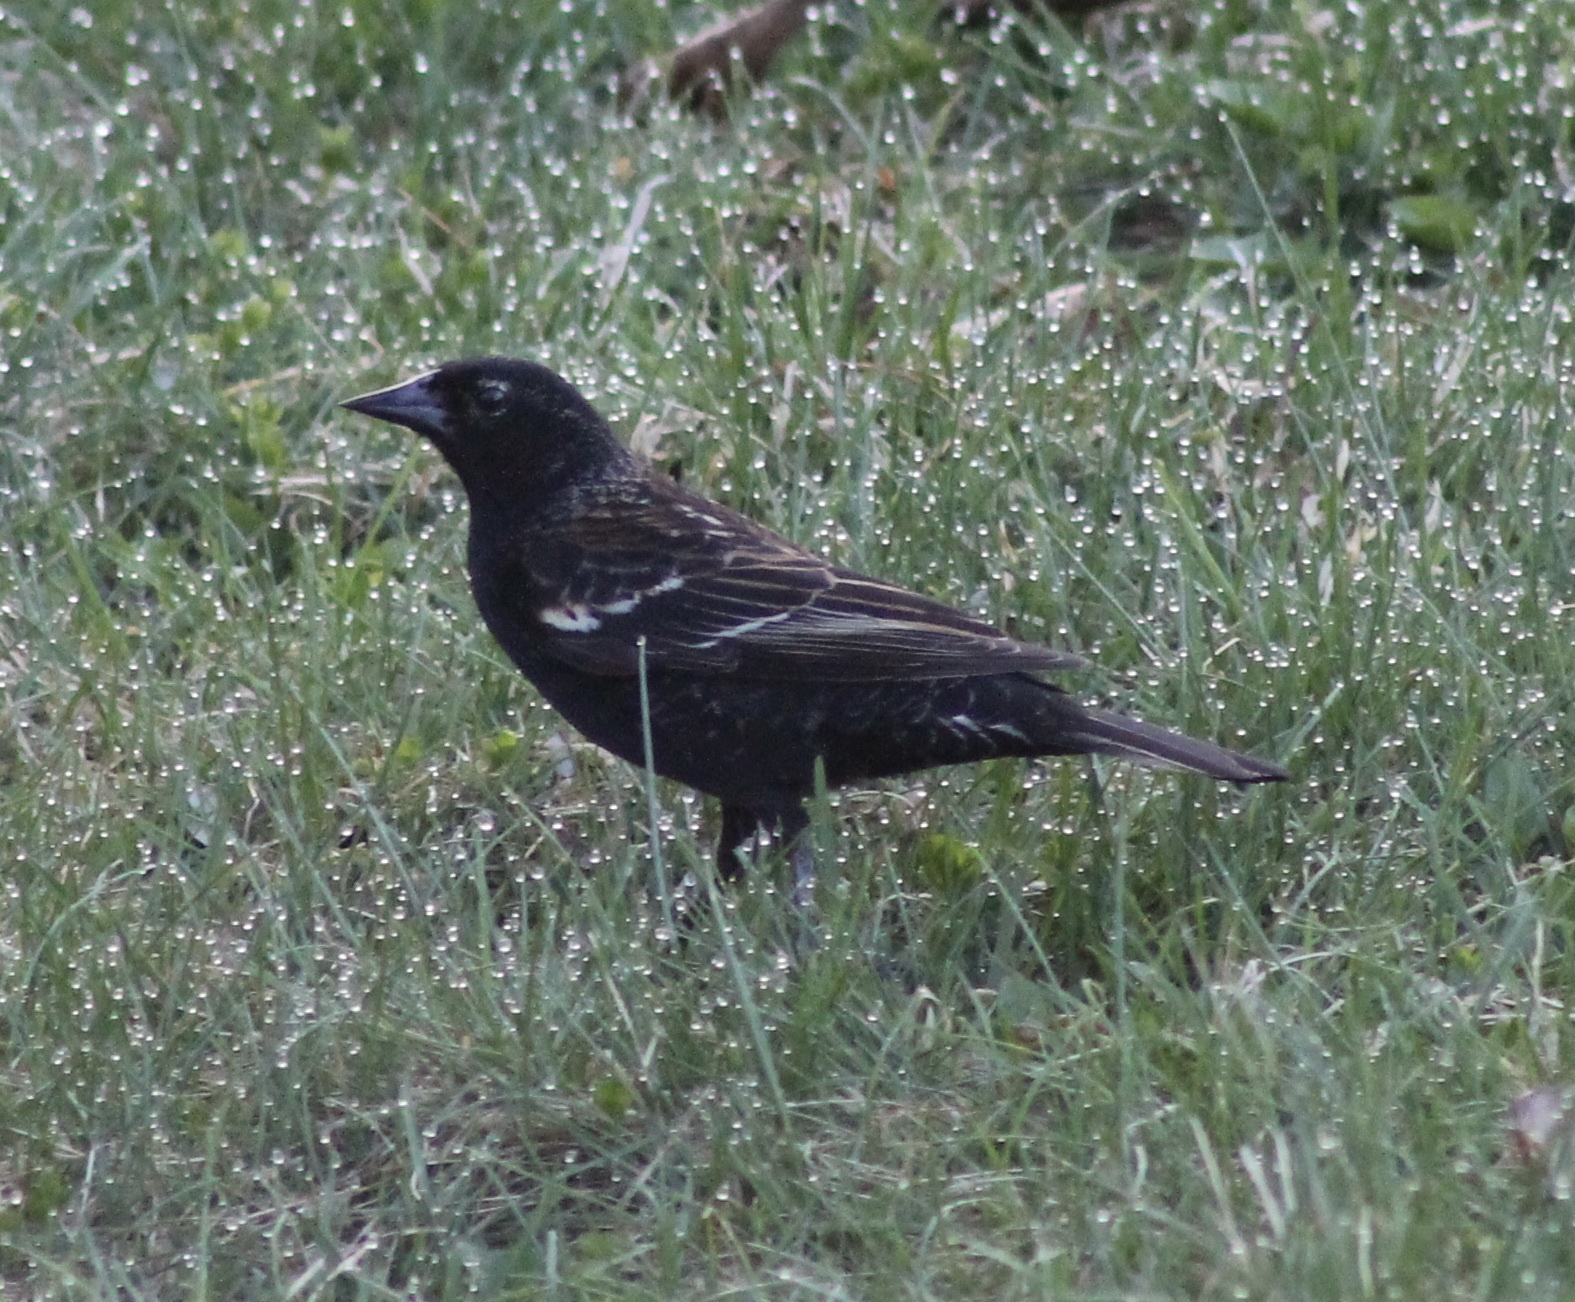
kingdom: Animalia
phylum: Chordata
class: Aves
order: Passeriformes
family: Icteridae
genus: Agelaius
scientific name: Agelaius phoeniceus
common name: Red-winged blackbird
